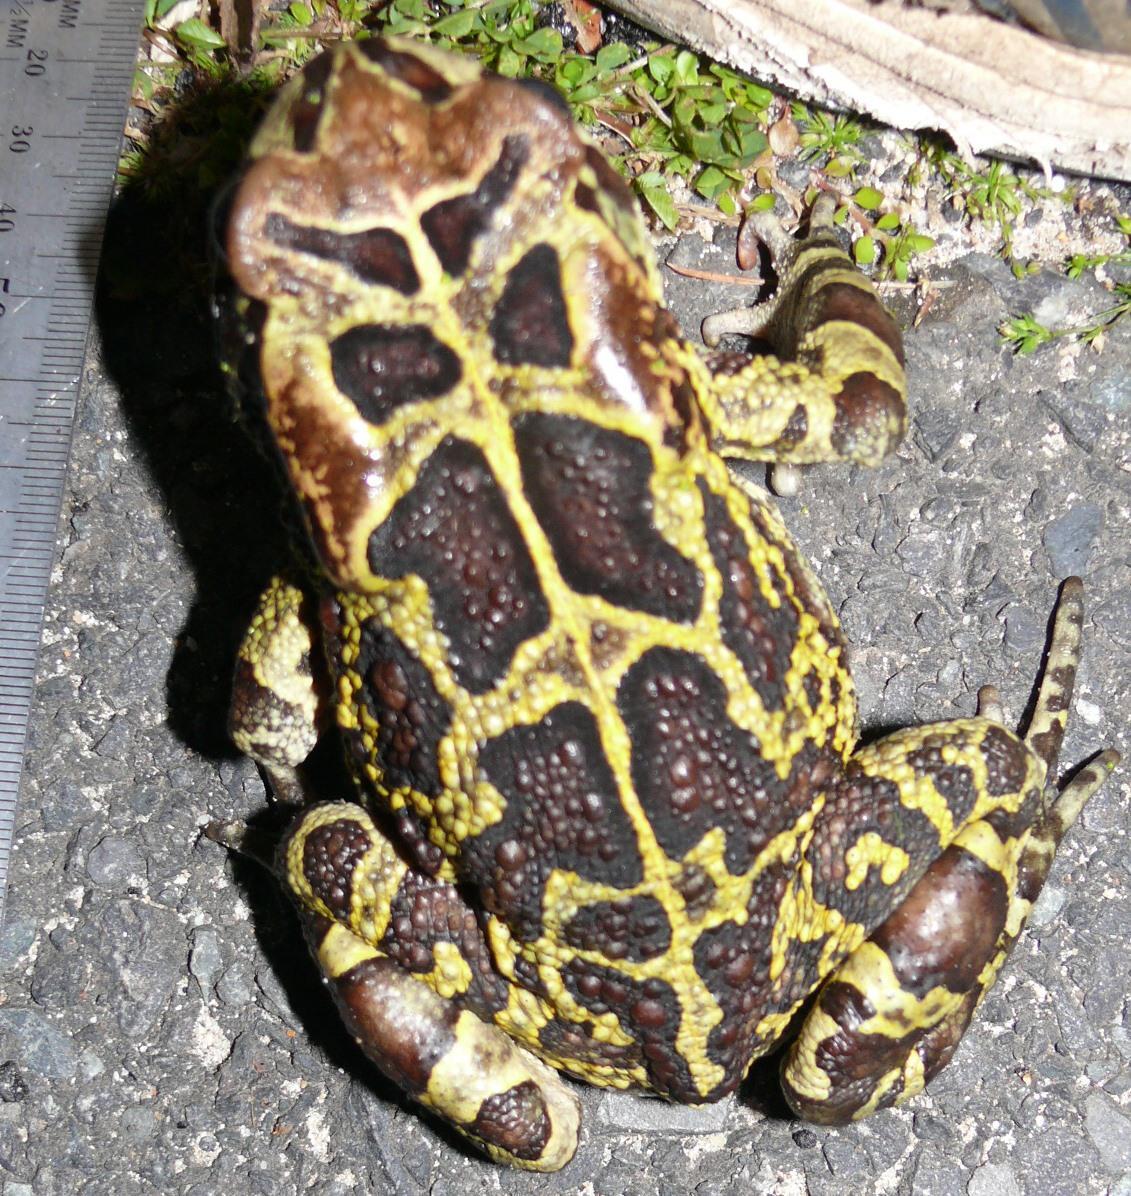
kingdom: Animalia
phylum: Chordata
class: Amphibia
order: Anura
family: Bufonidae
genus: Sclerophrys
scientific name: Sclerophrys pantherina
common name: Panther toad
